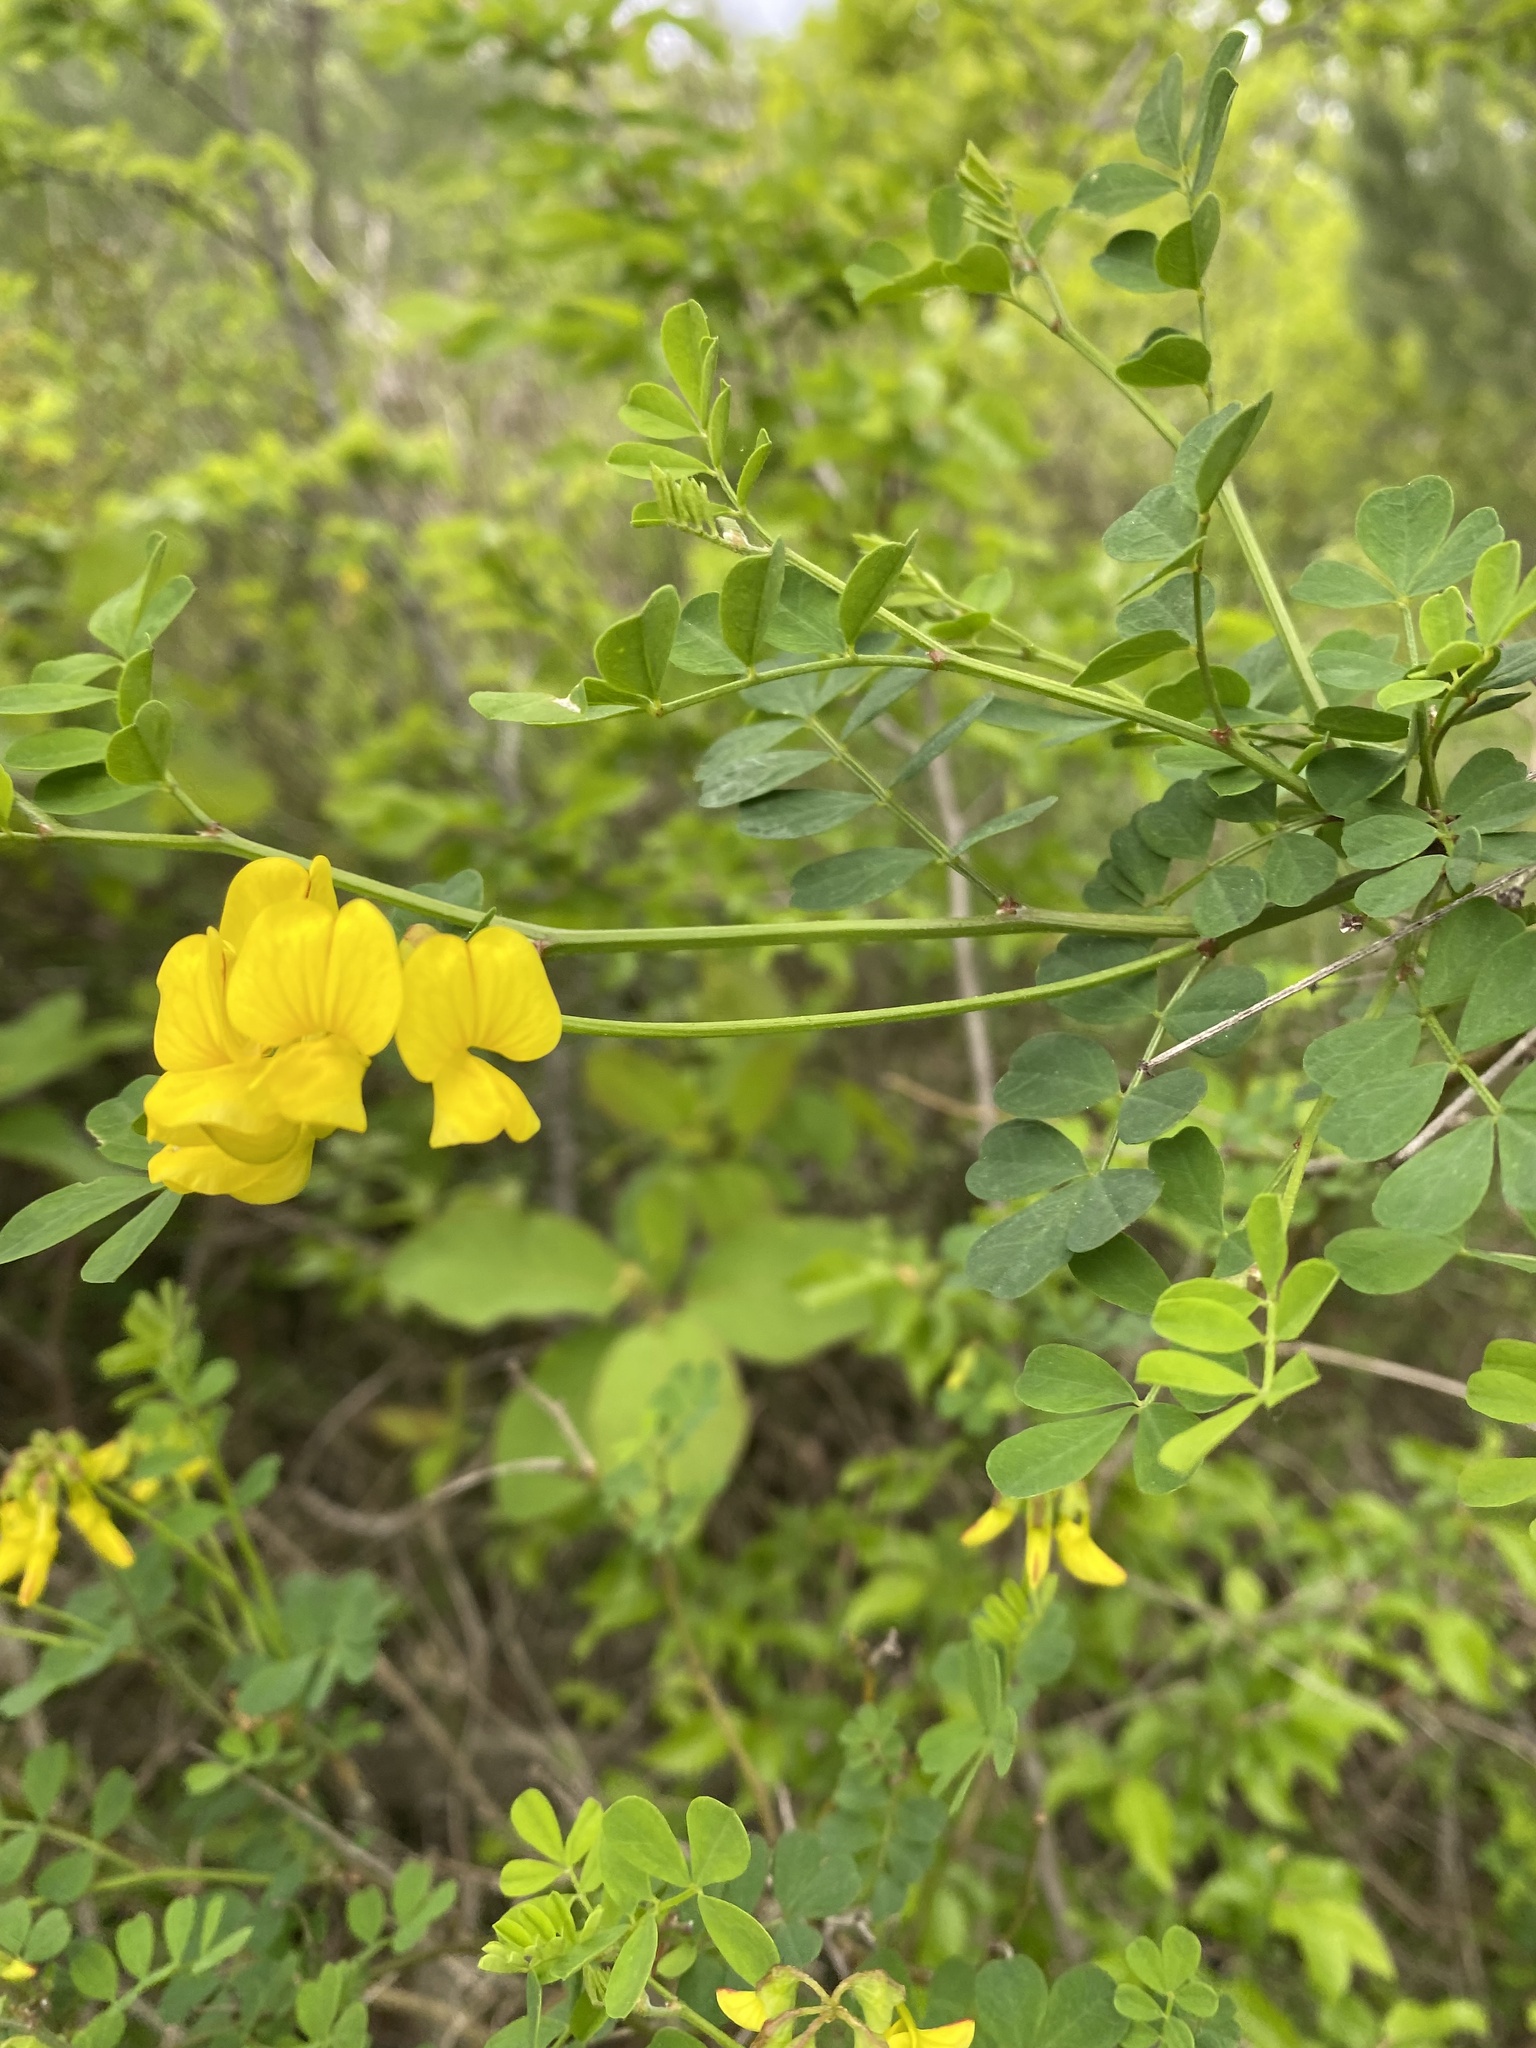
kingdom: Plantae
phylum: Tracheophyta
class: Magnoliopsida
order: Fabales
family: Fabaceae
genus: Hippocrepis
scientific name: Hippocrepis emerus
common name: Scorpion senna
